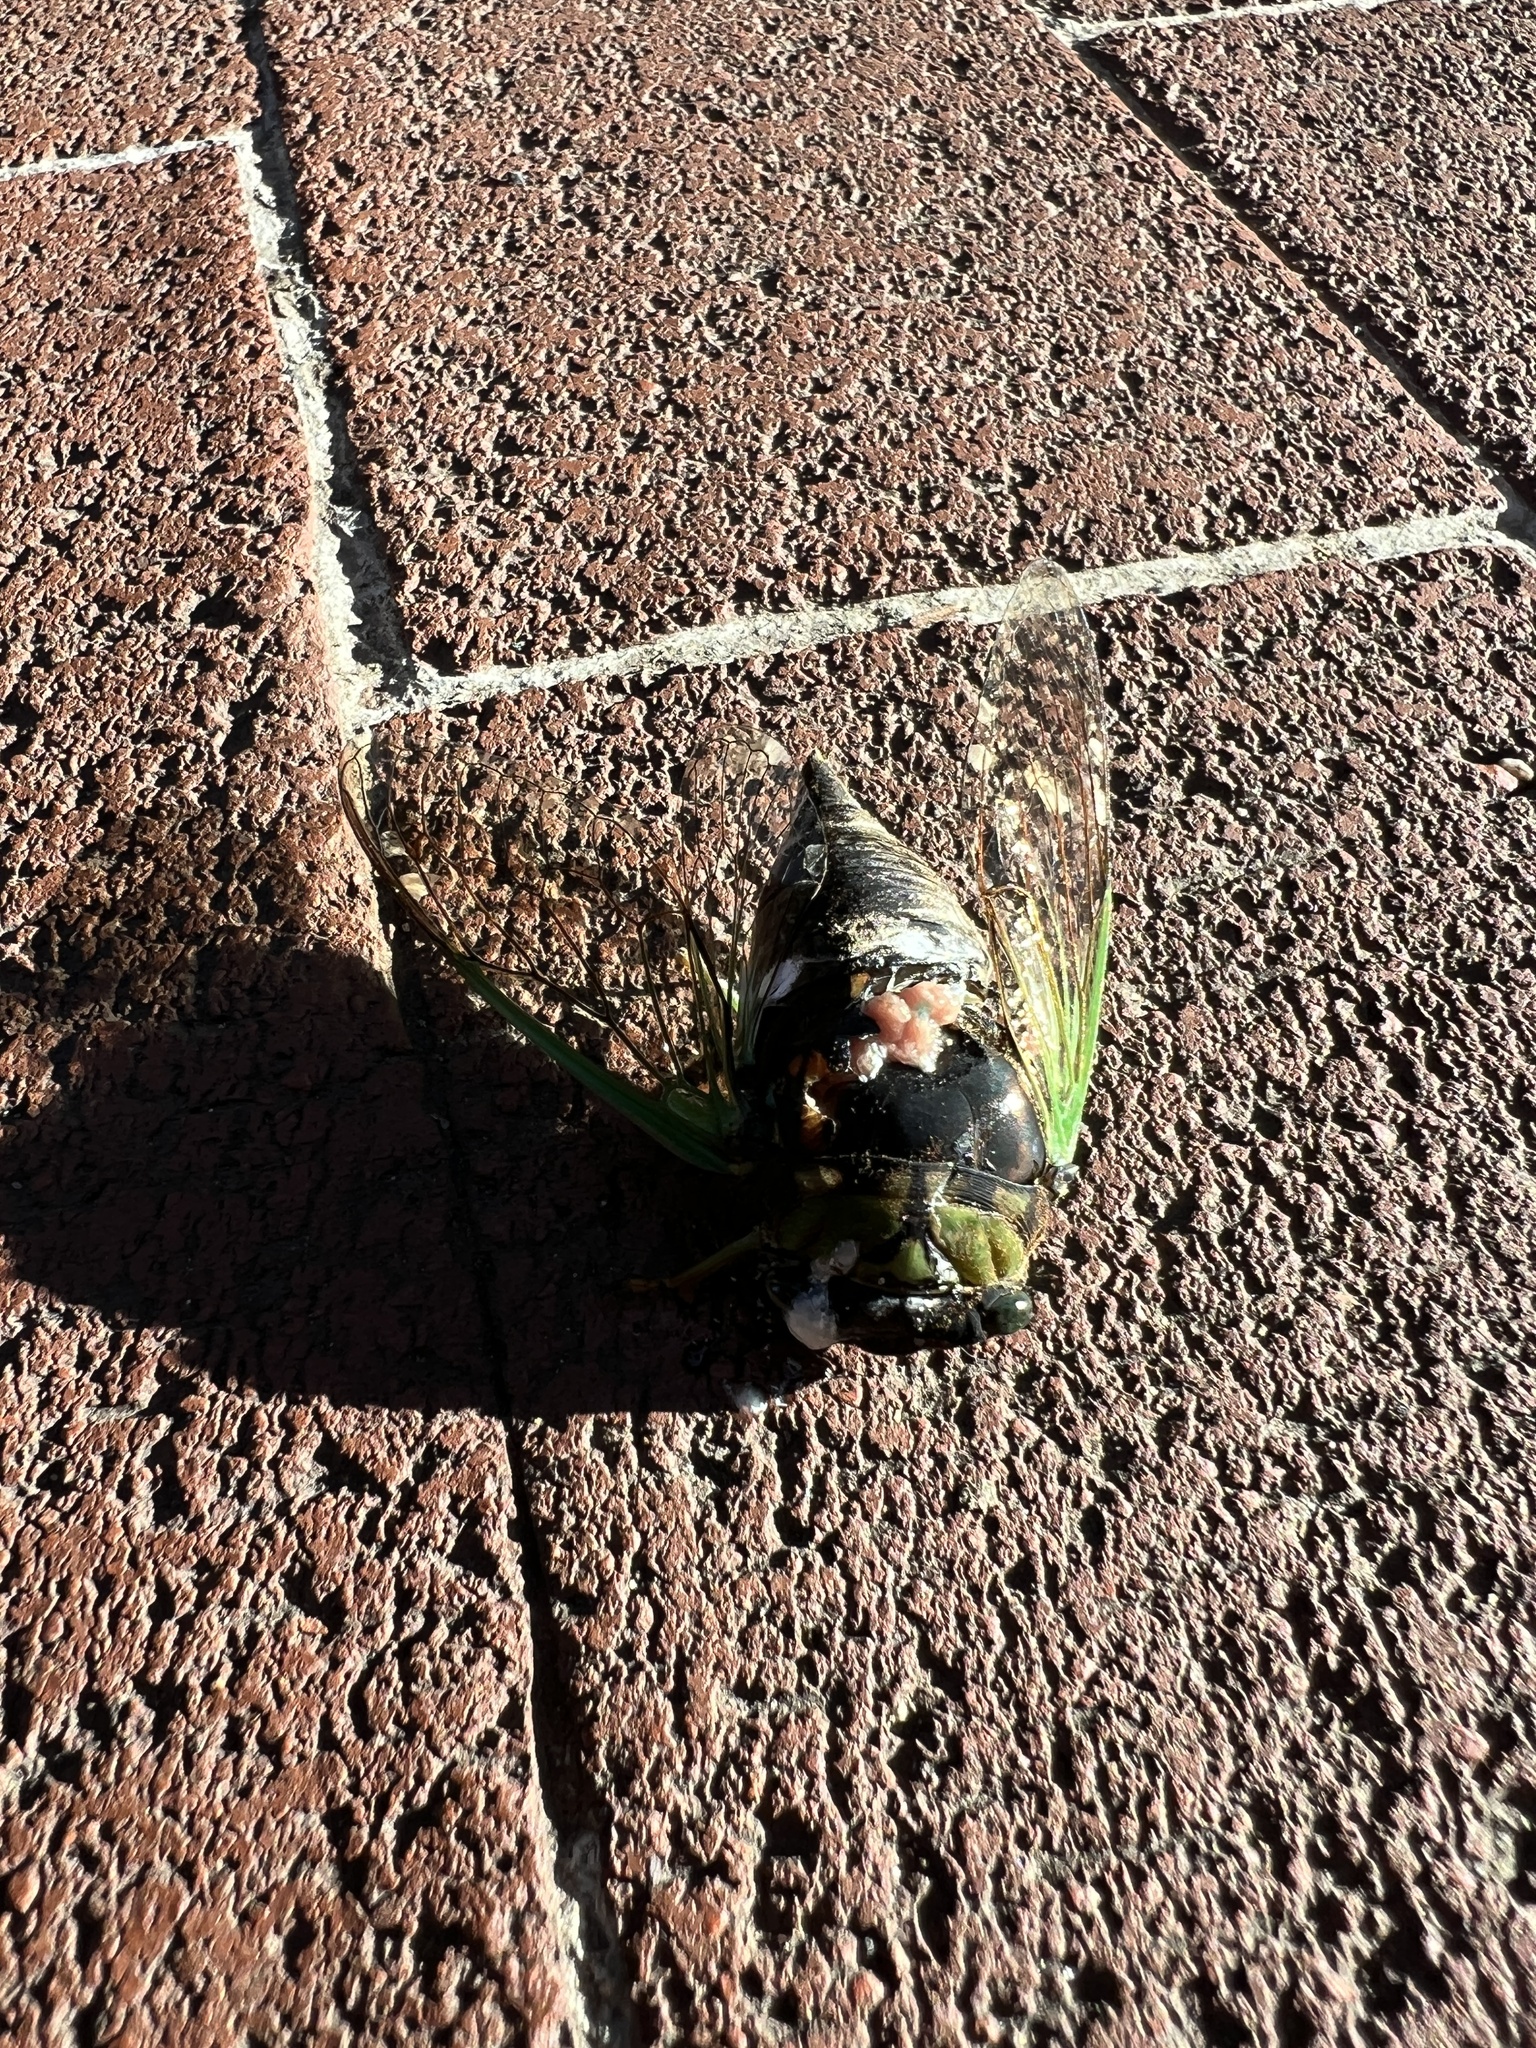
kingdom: Animalia
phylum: Arthropoda
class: Insecta
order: Hemiptera
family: Cicadidae
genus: Neotibicen
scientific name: Neotibicen tibicen
